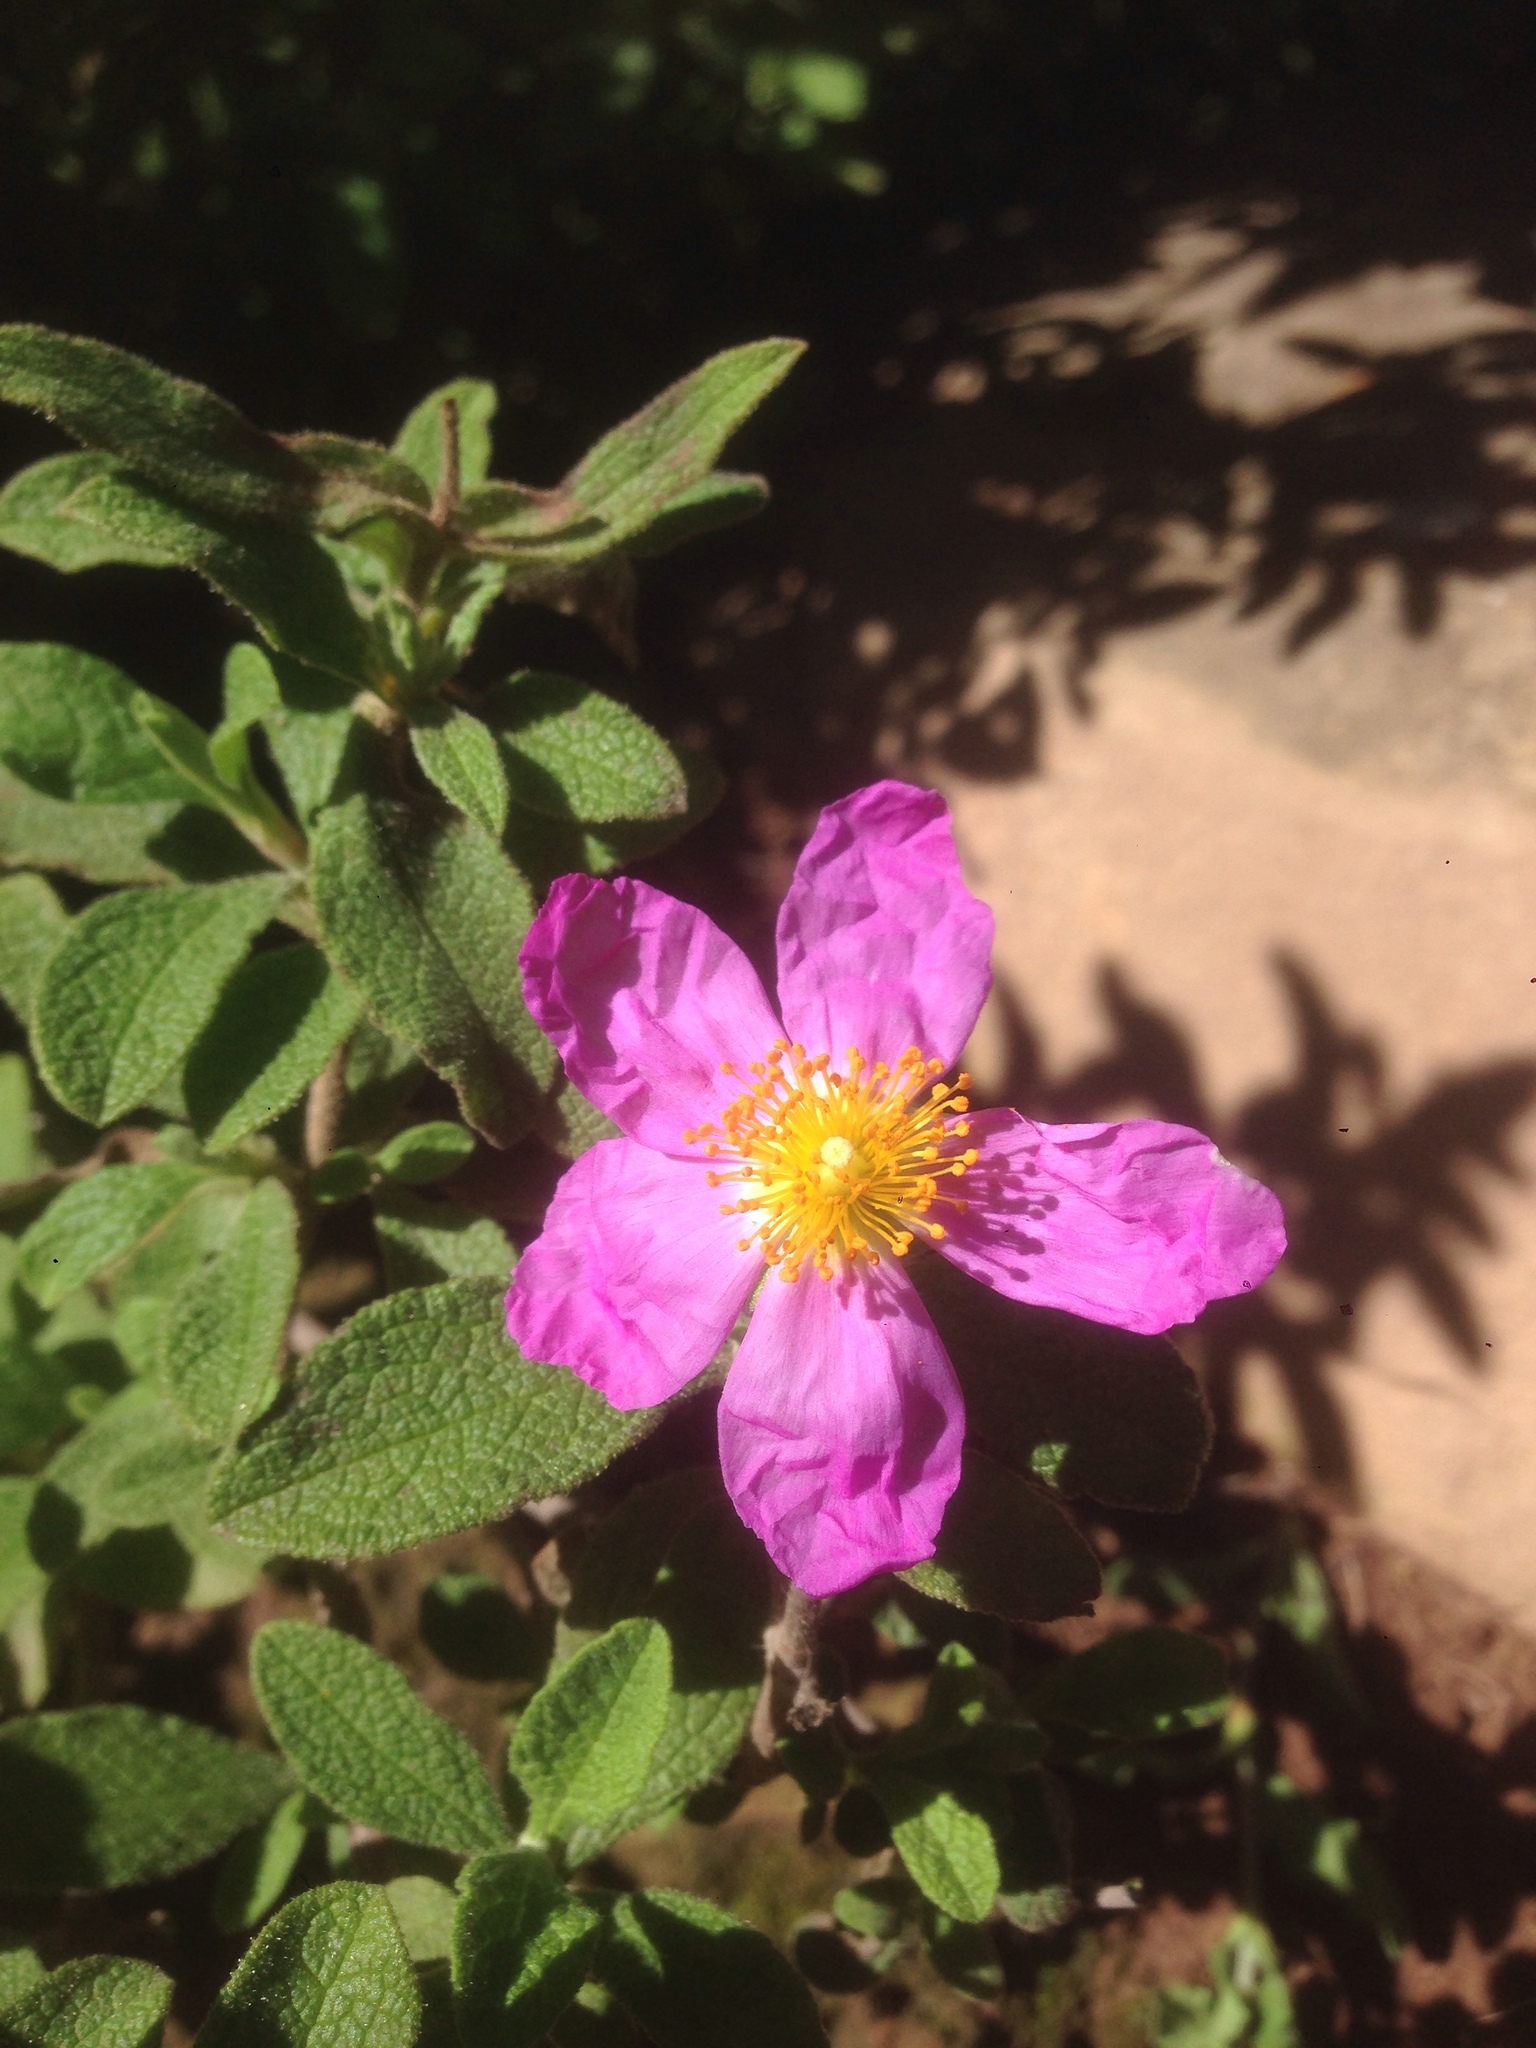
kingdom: Plantae
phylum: Tracheophyta
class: Magnoliopsida
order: Malvales
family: Cistaceae
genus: Cistus
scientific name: Cistus creticus
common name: Cretan rockrose
